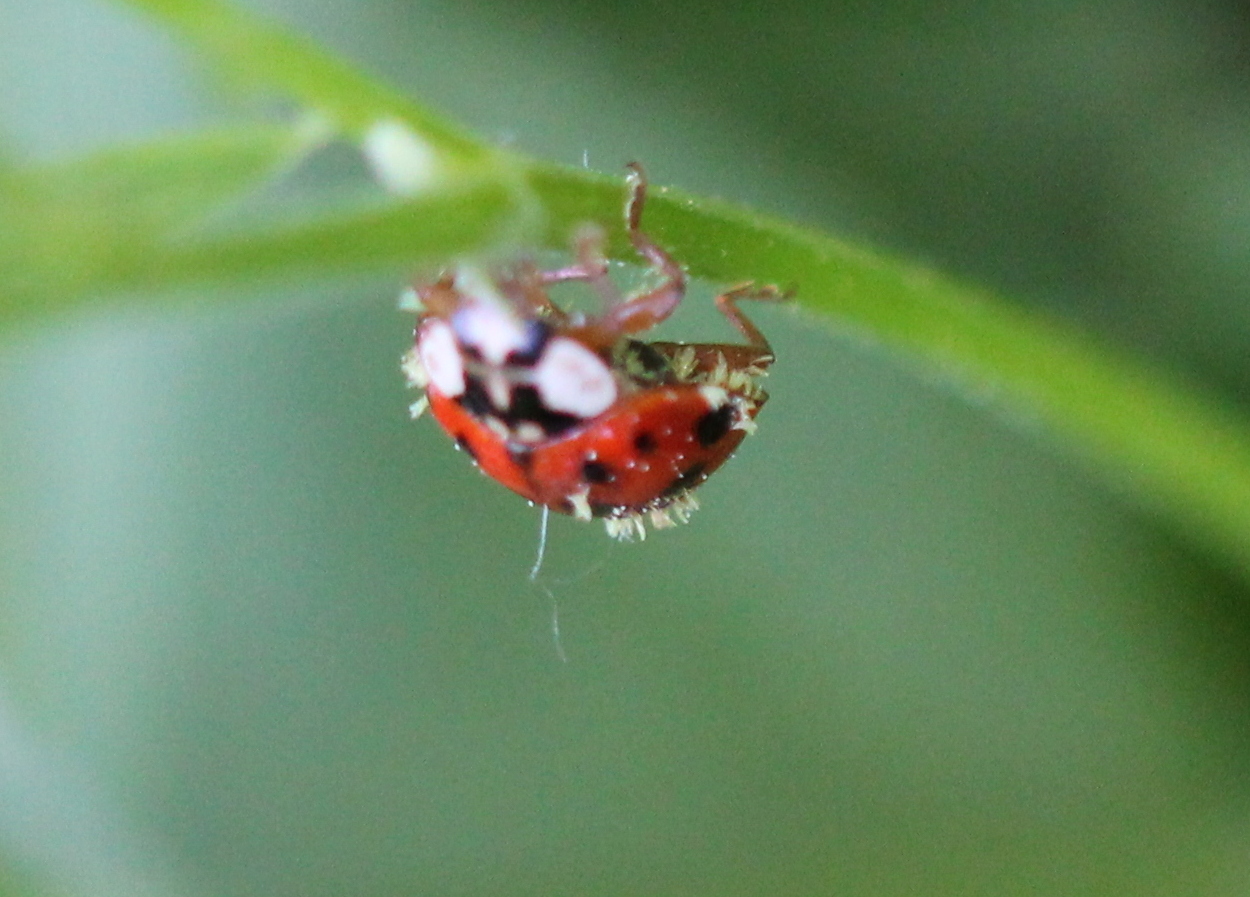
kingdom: Fungi
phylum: Ascomycota
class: Laboulbeniomycetes
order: Laboulbeniales
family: Laboulbeniaceae
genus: Hesperomyces
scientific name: Hesperomyces harmoniae
